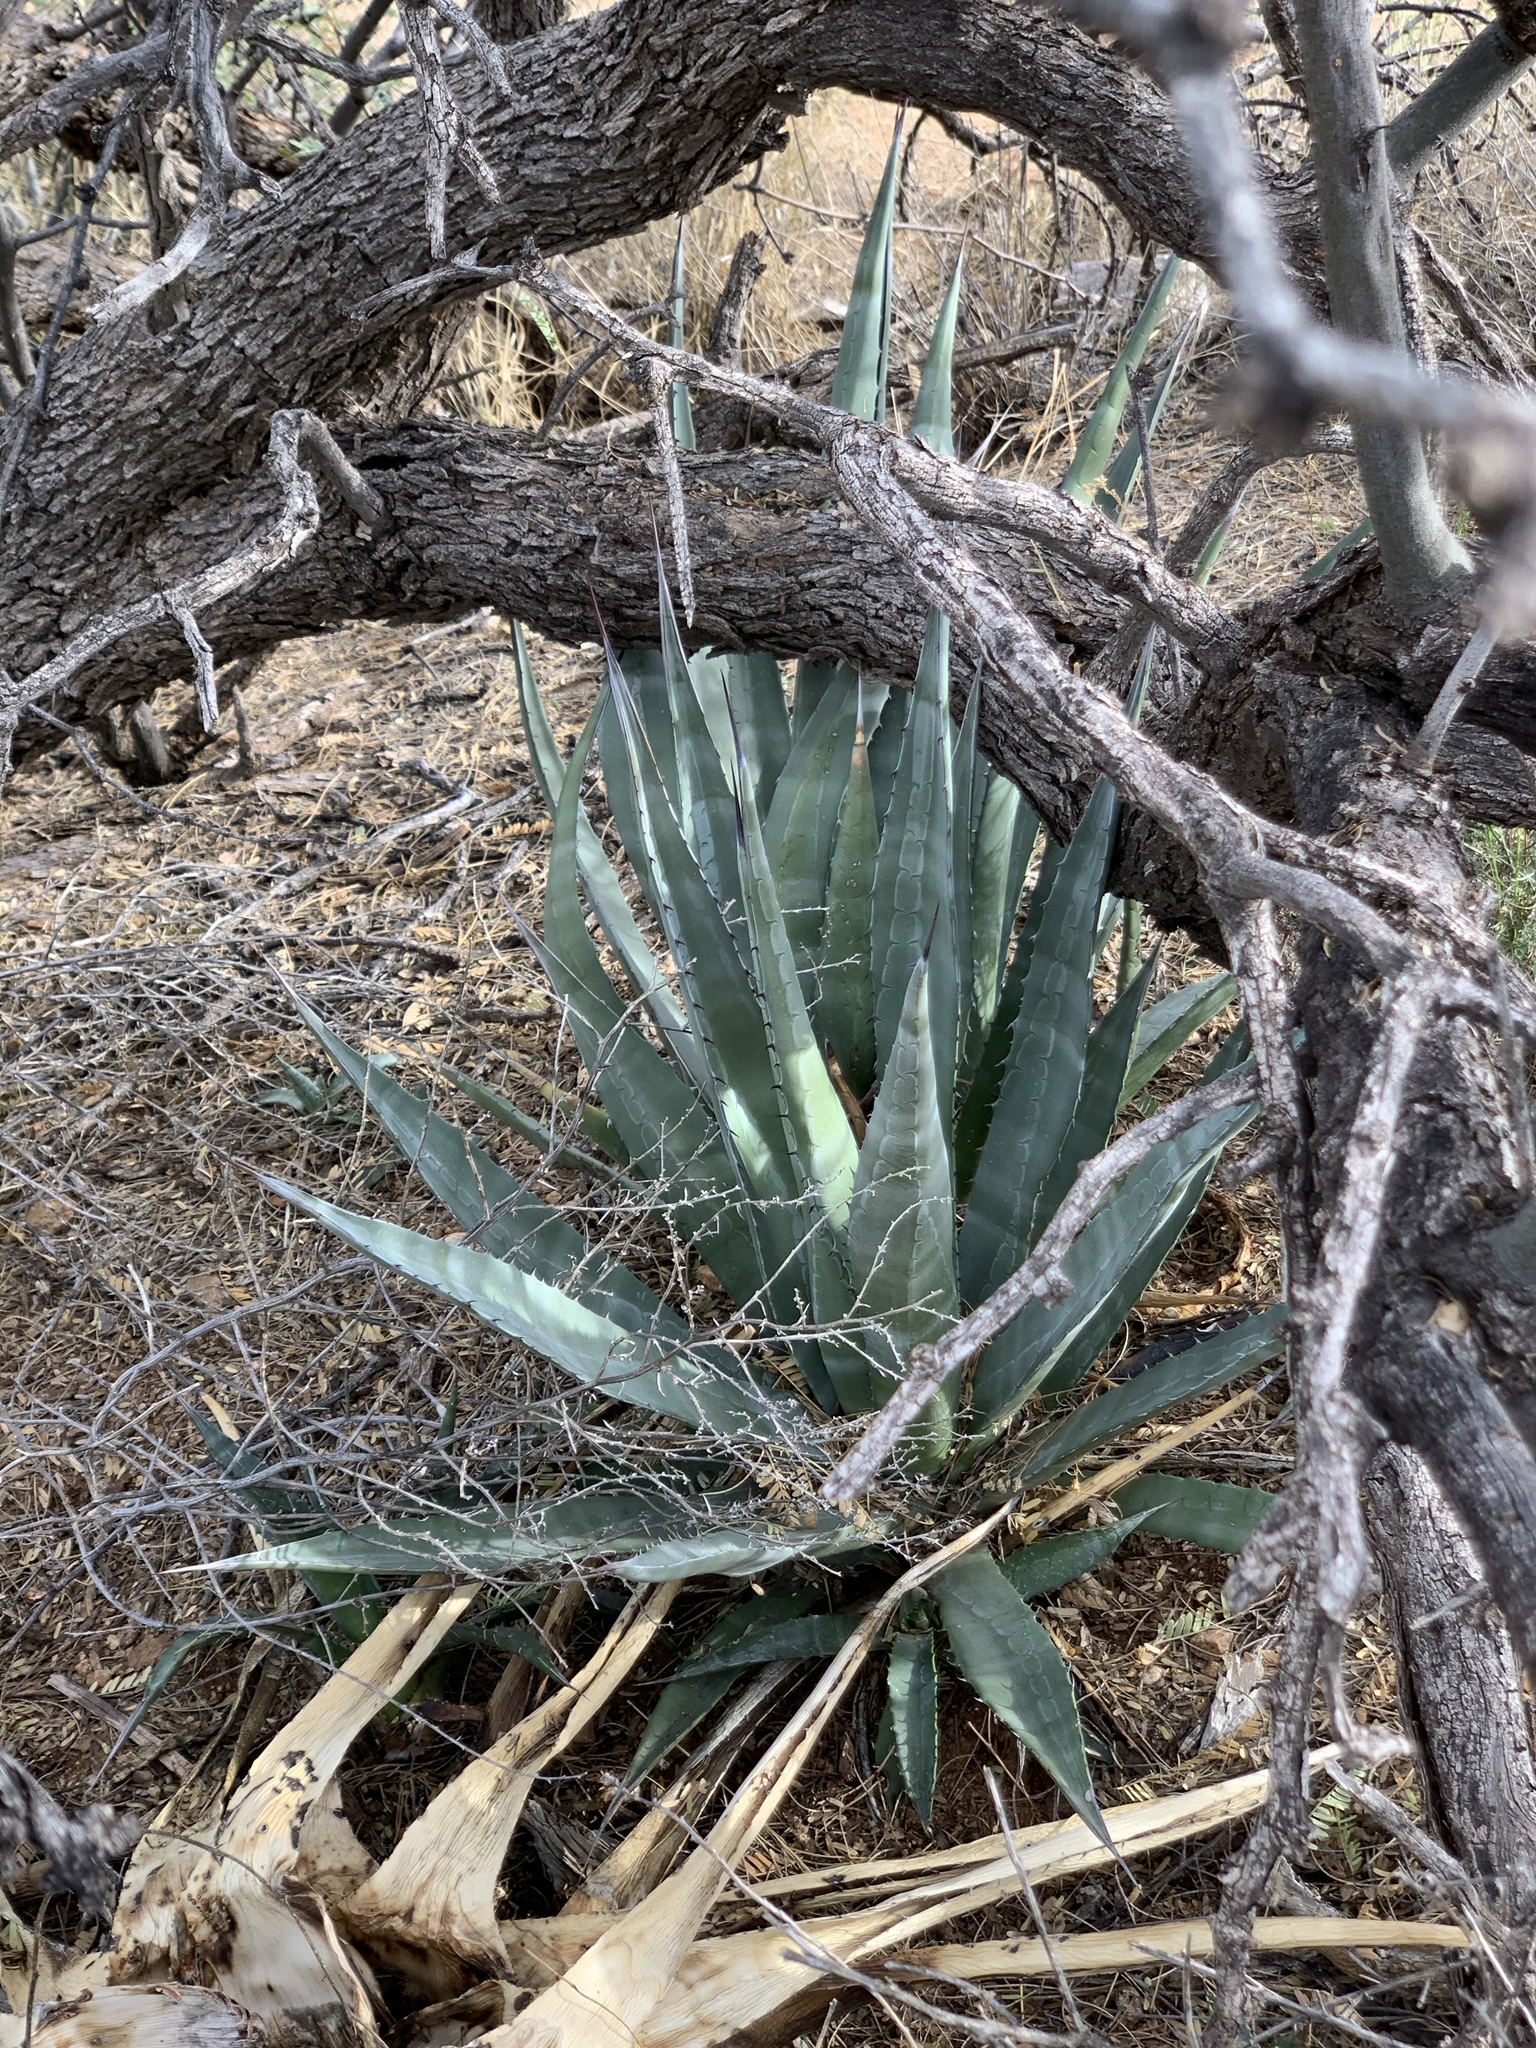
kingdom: Plantae
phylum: Tracheophyta
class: Liliopsida
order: Asparagales
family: Asparagaceae
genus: Agave
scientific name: Agave palmeri
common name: Palmer agave
